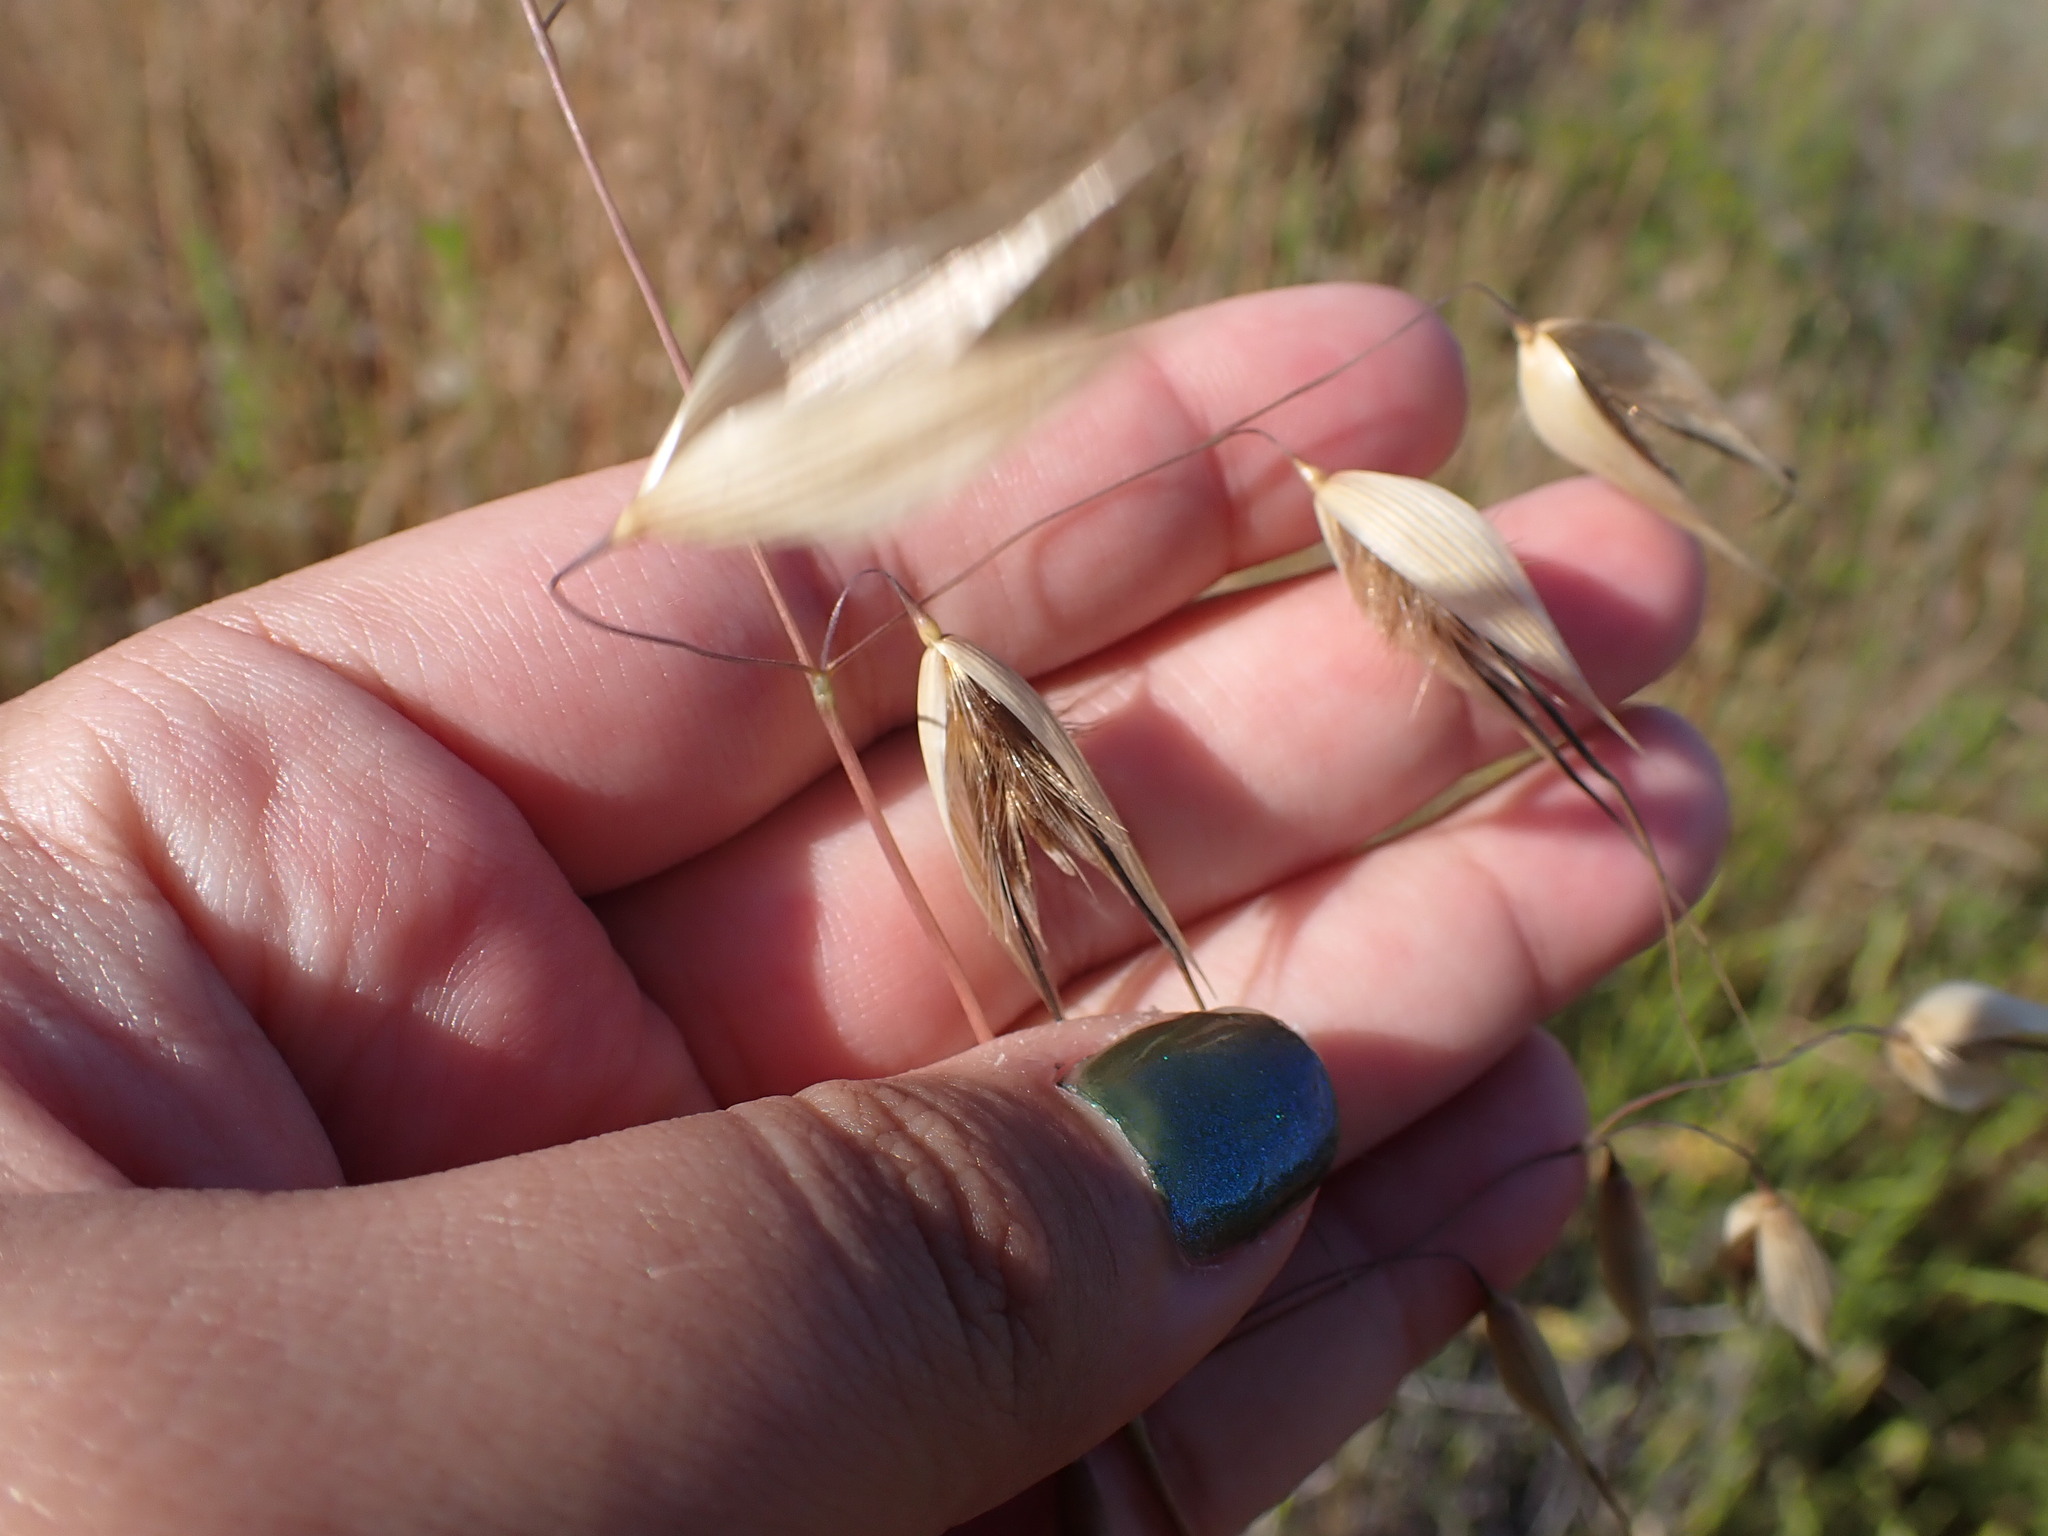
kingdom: Plantae
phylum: Tracheophyta
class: Liliopsida
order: Poales
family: Poaceae
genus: Avena
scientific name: Avena
